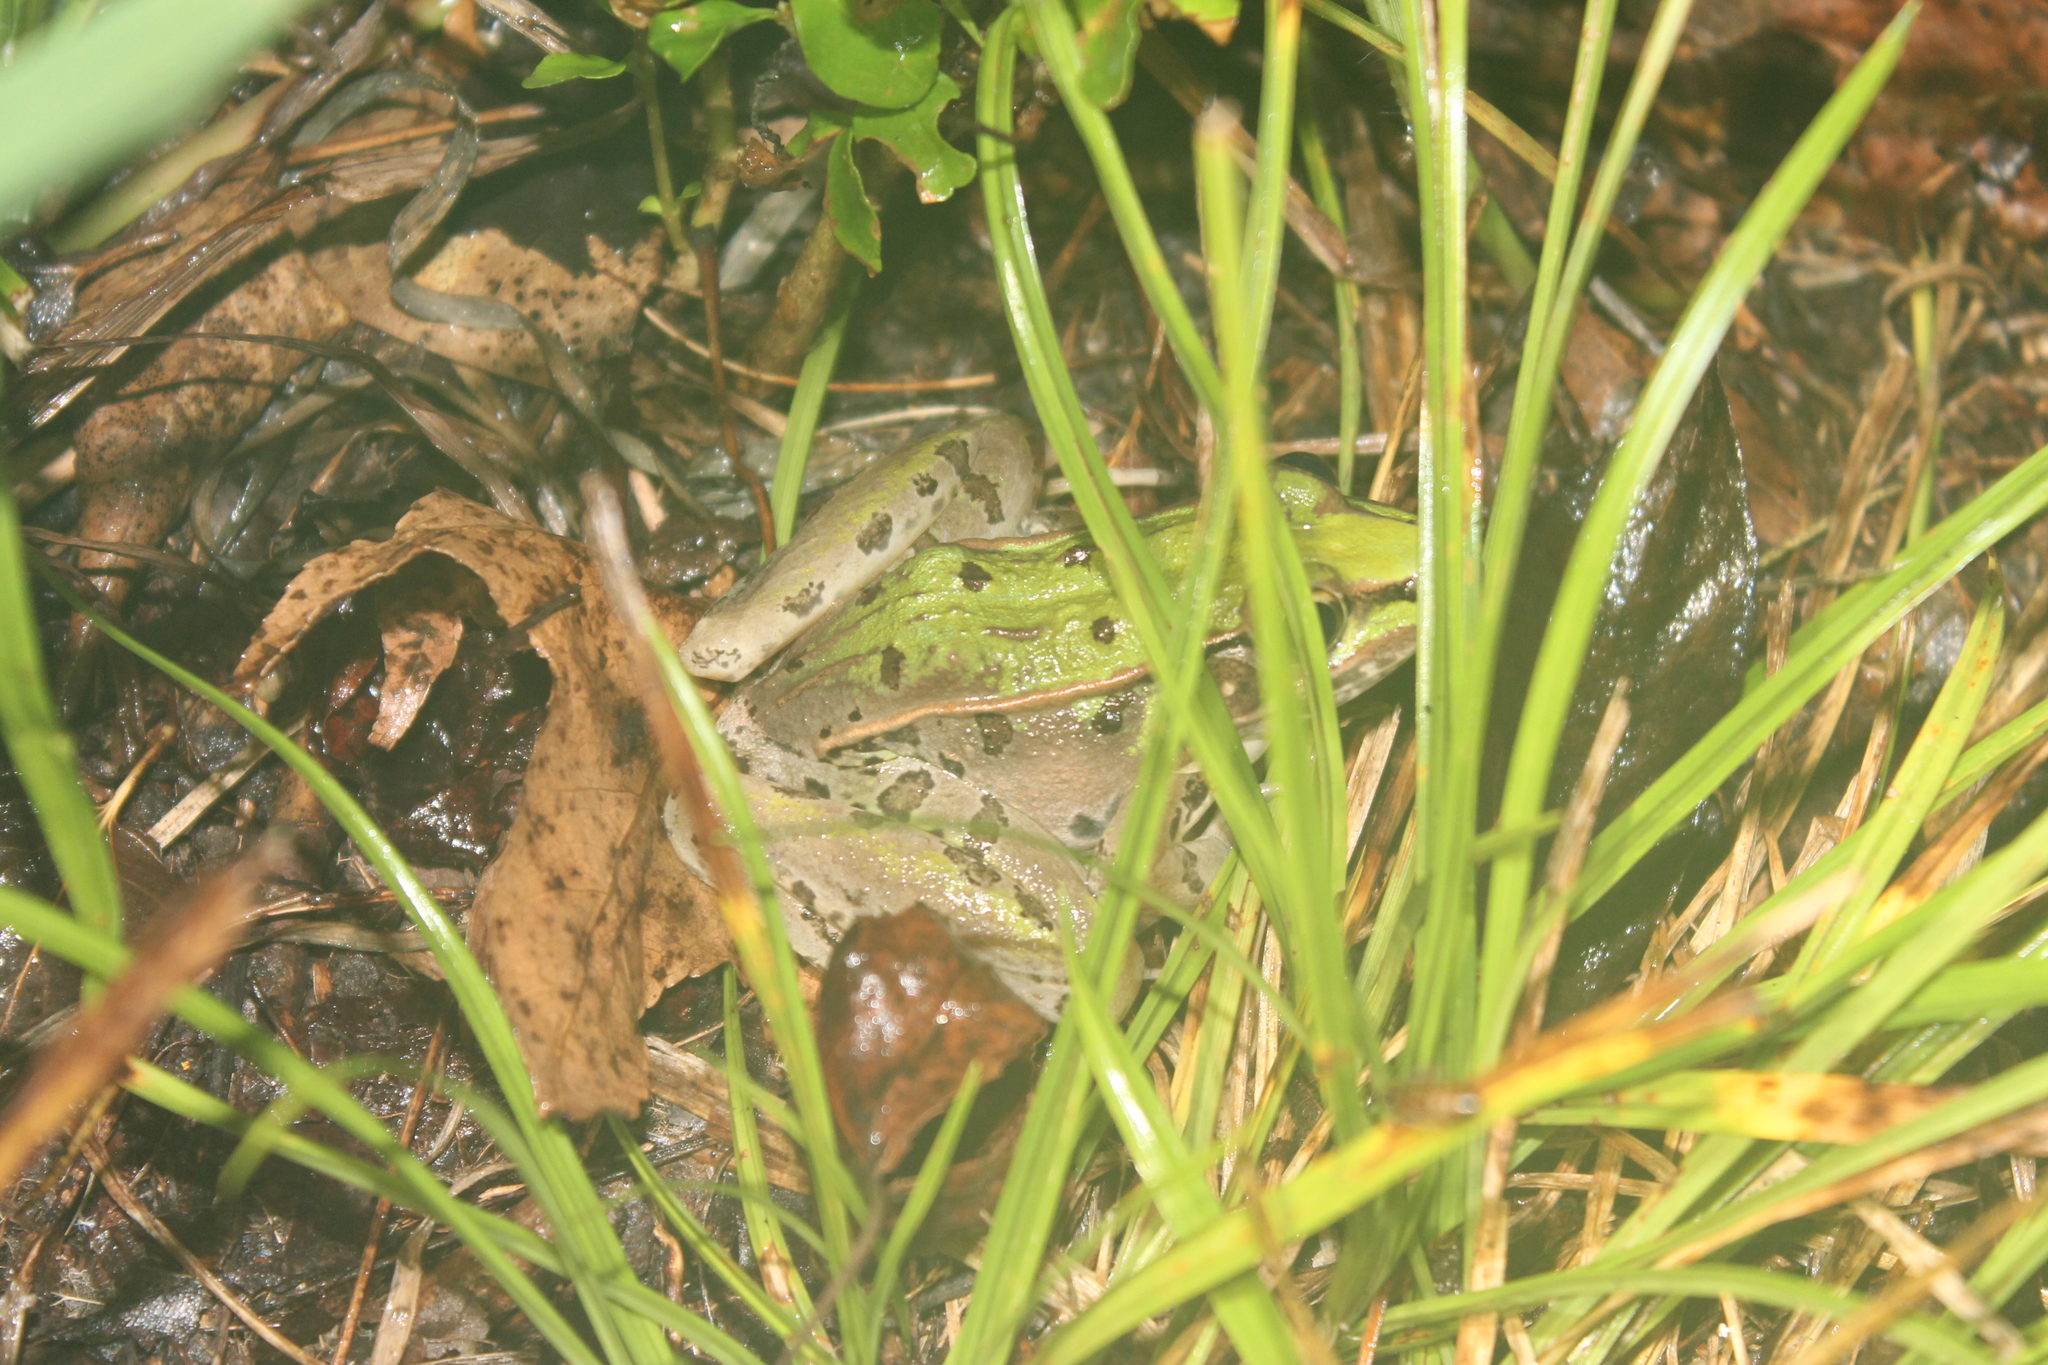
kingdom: Animalia
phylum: Chordata
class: Amphibia
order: Anura
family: Ranidae
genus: Lithobates
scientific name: Lithobates sphenocephalus
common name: Southern leopard frog
